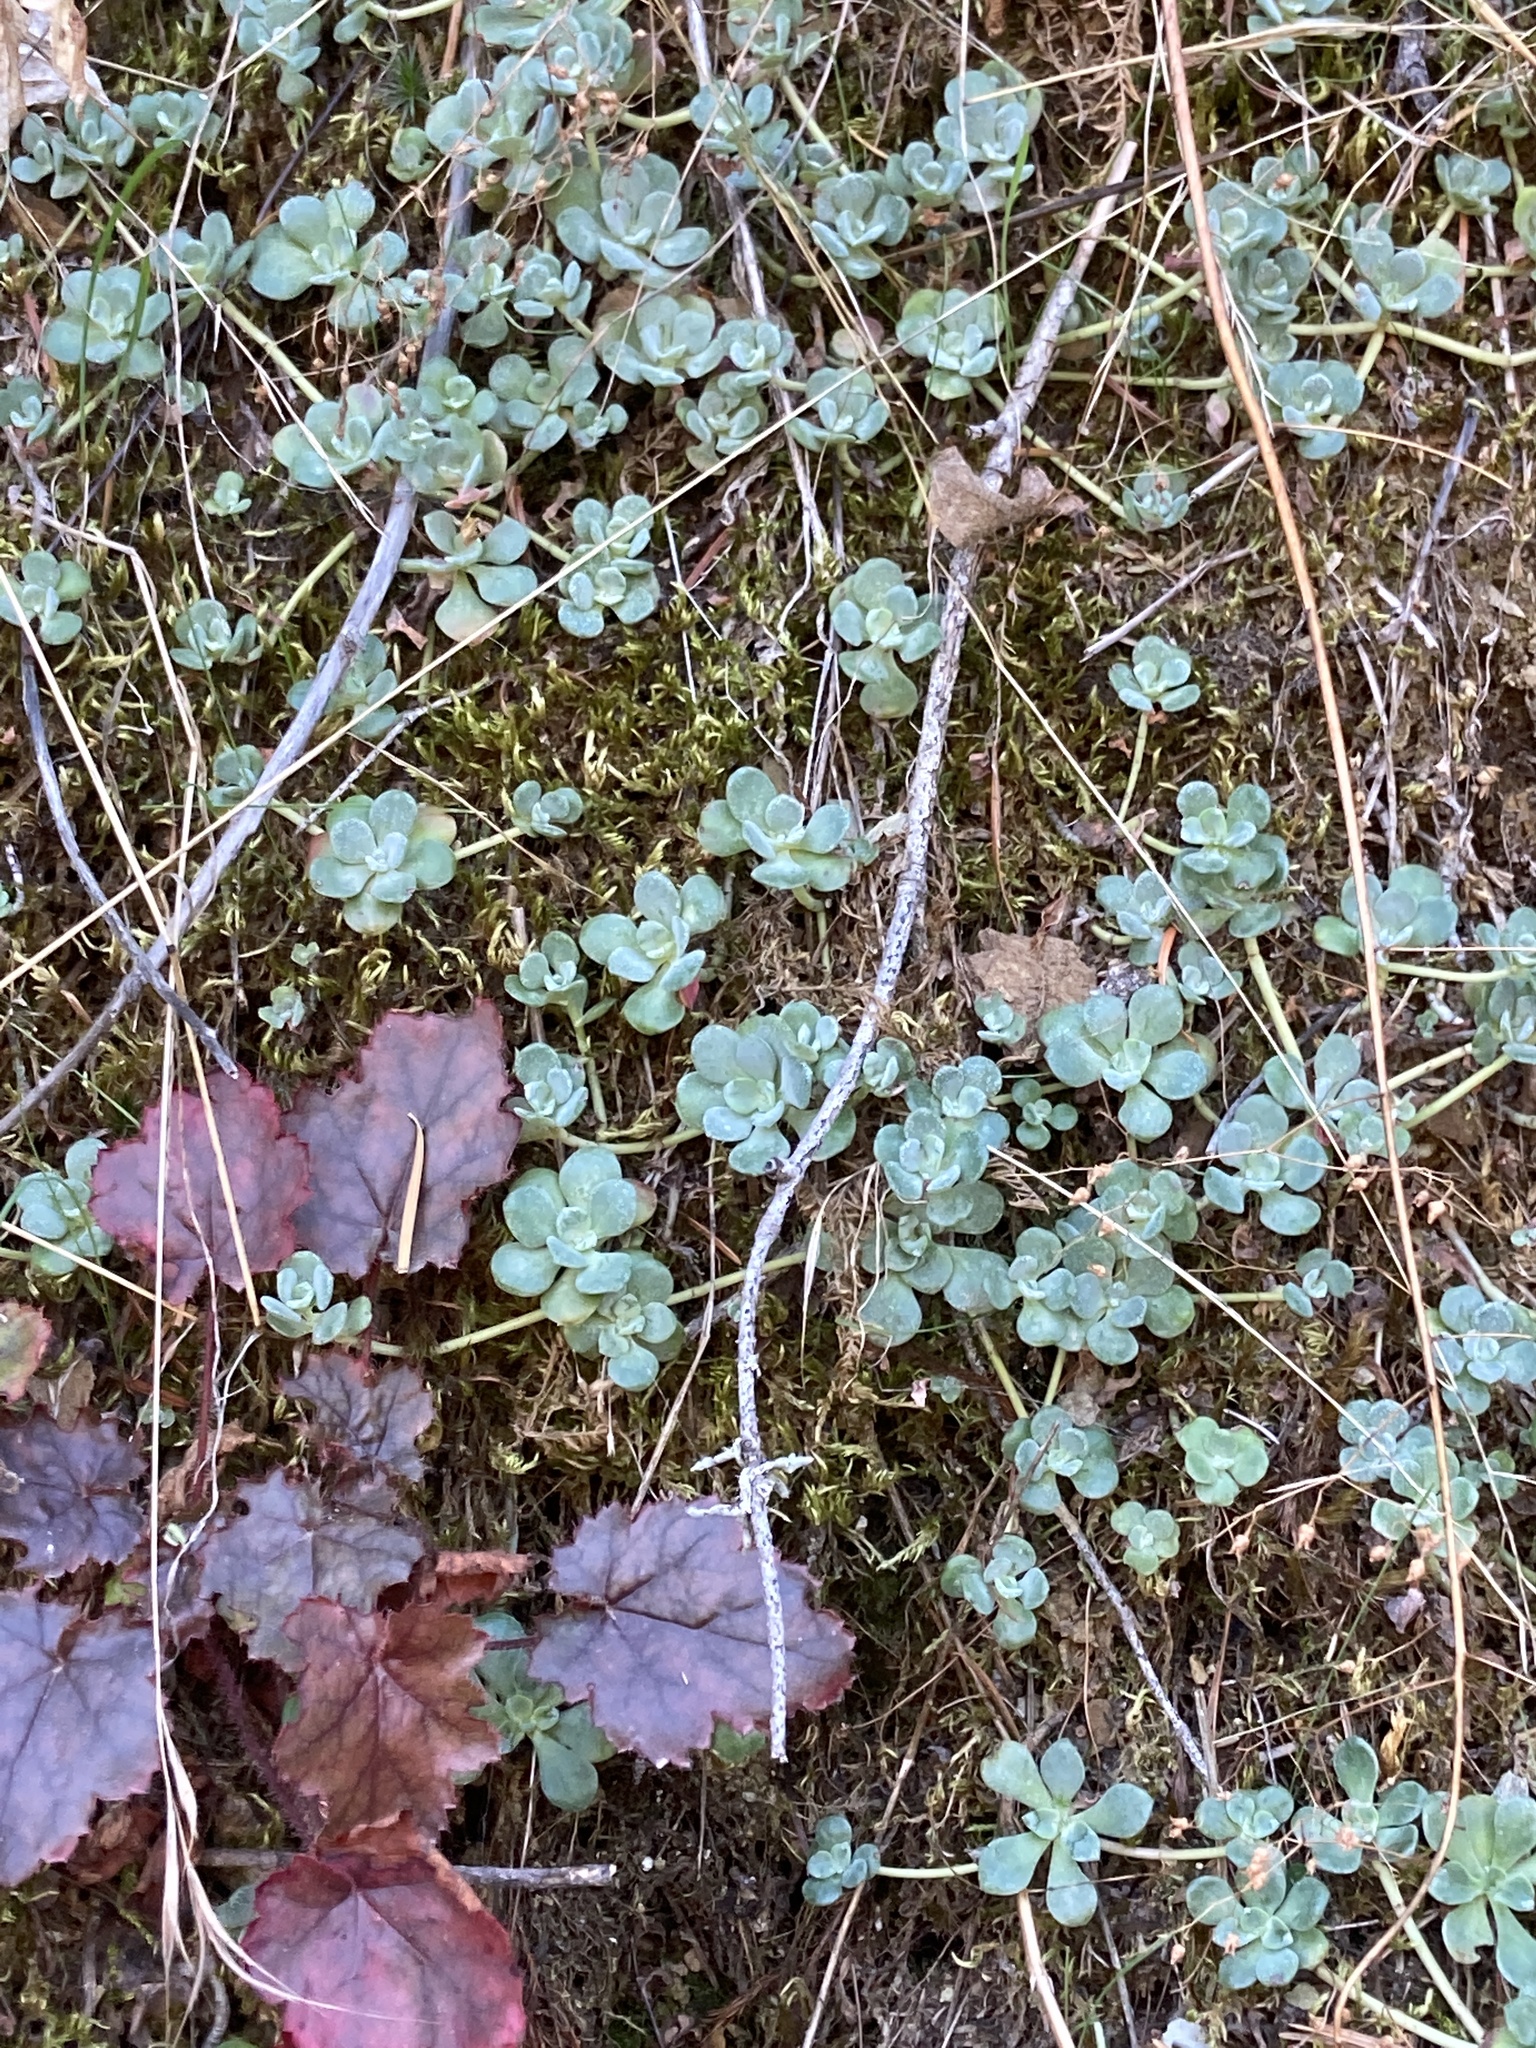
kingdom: Plantae
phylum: Tracheophyta
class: Magnoliopsida
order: Saxifragales
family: Crassulaceae
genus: Sedum
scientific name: Sedum spathulifolium
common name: Colorado stonecrop
